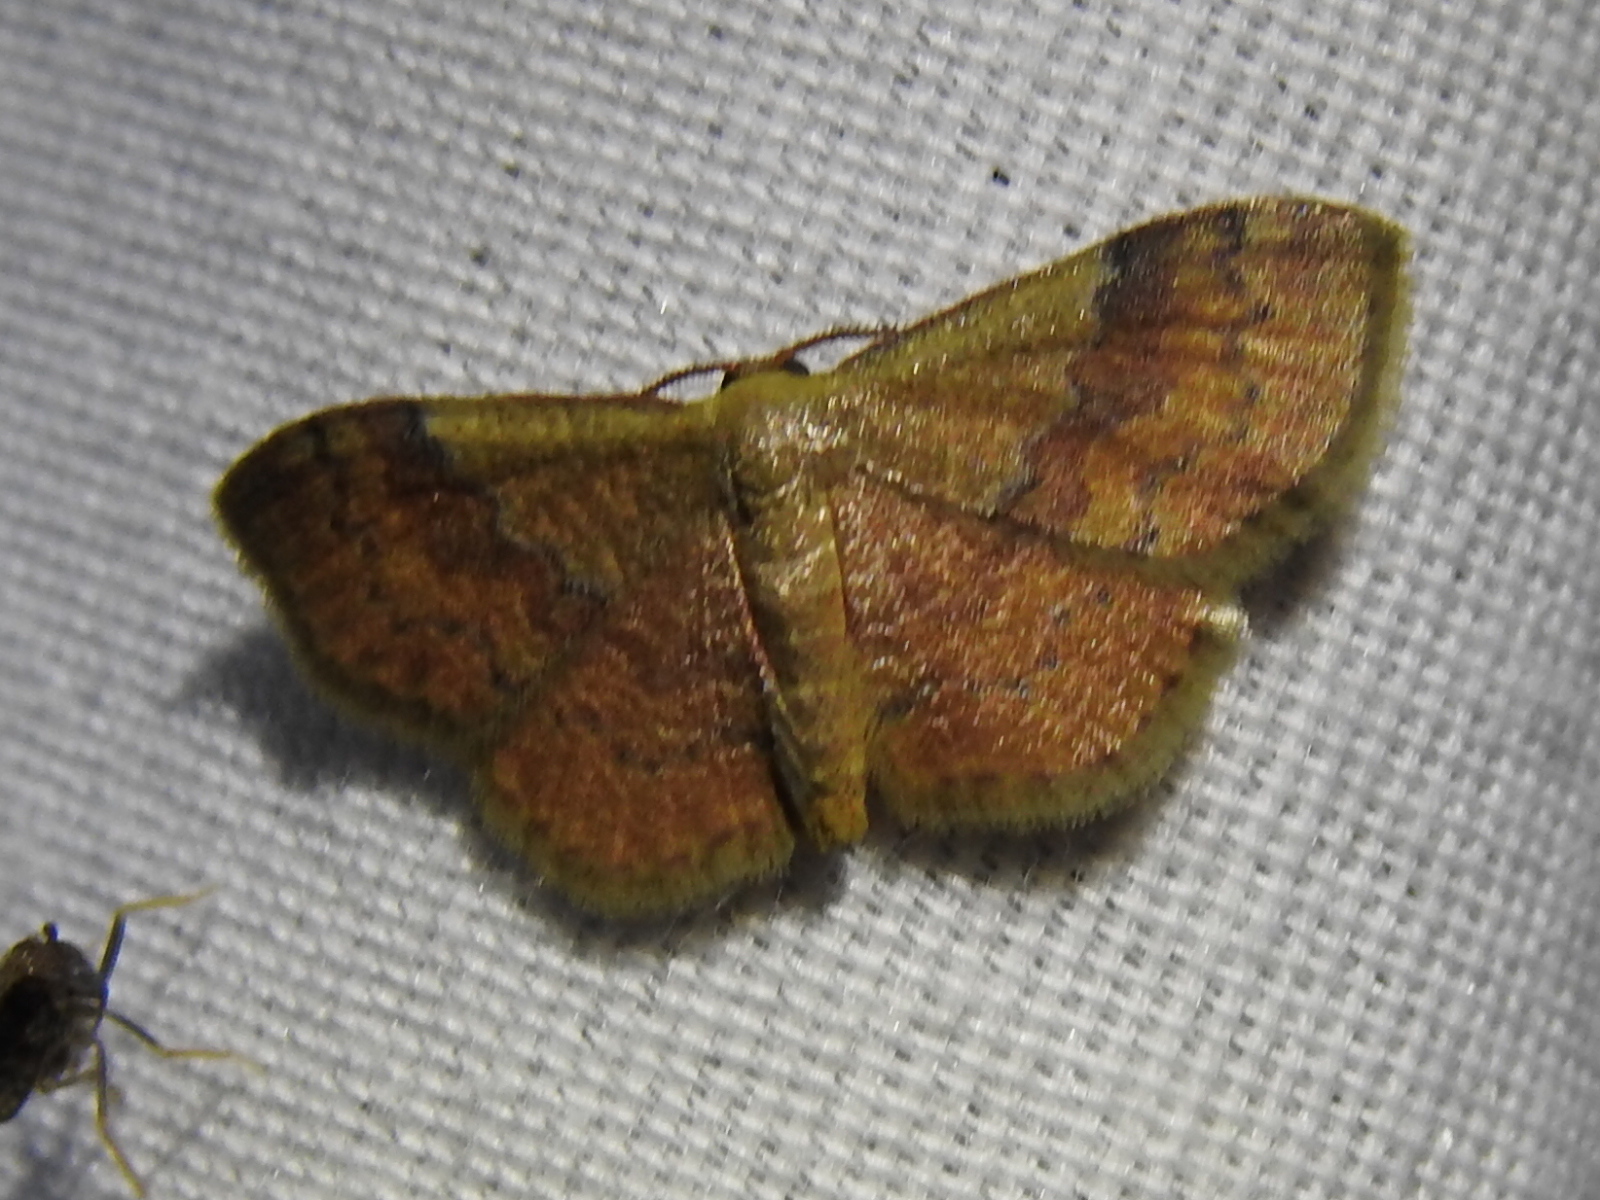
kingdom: Animalia
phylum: Arthropoda
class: Insecta
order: Lepidoptera
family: Geometridae
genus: Leptostales
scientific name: Leptostales ferruminaria
